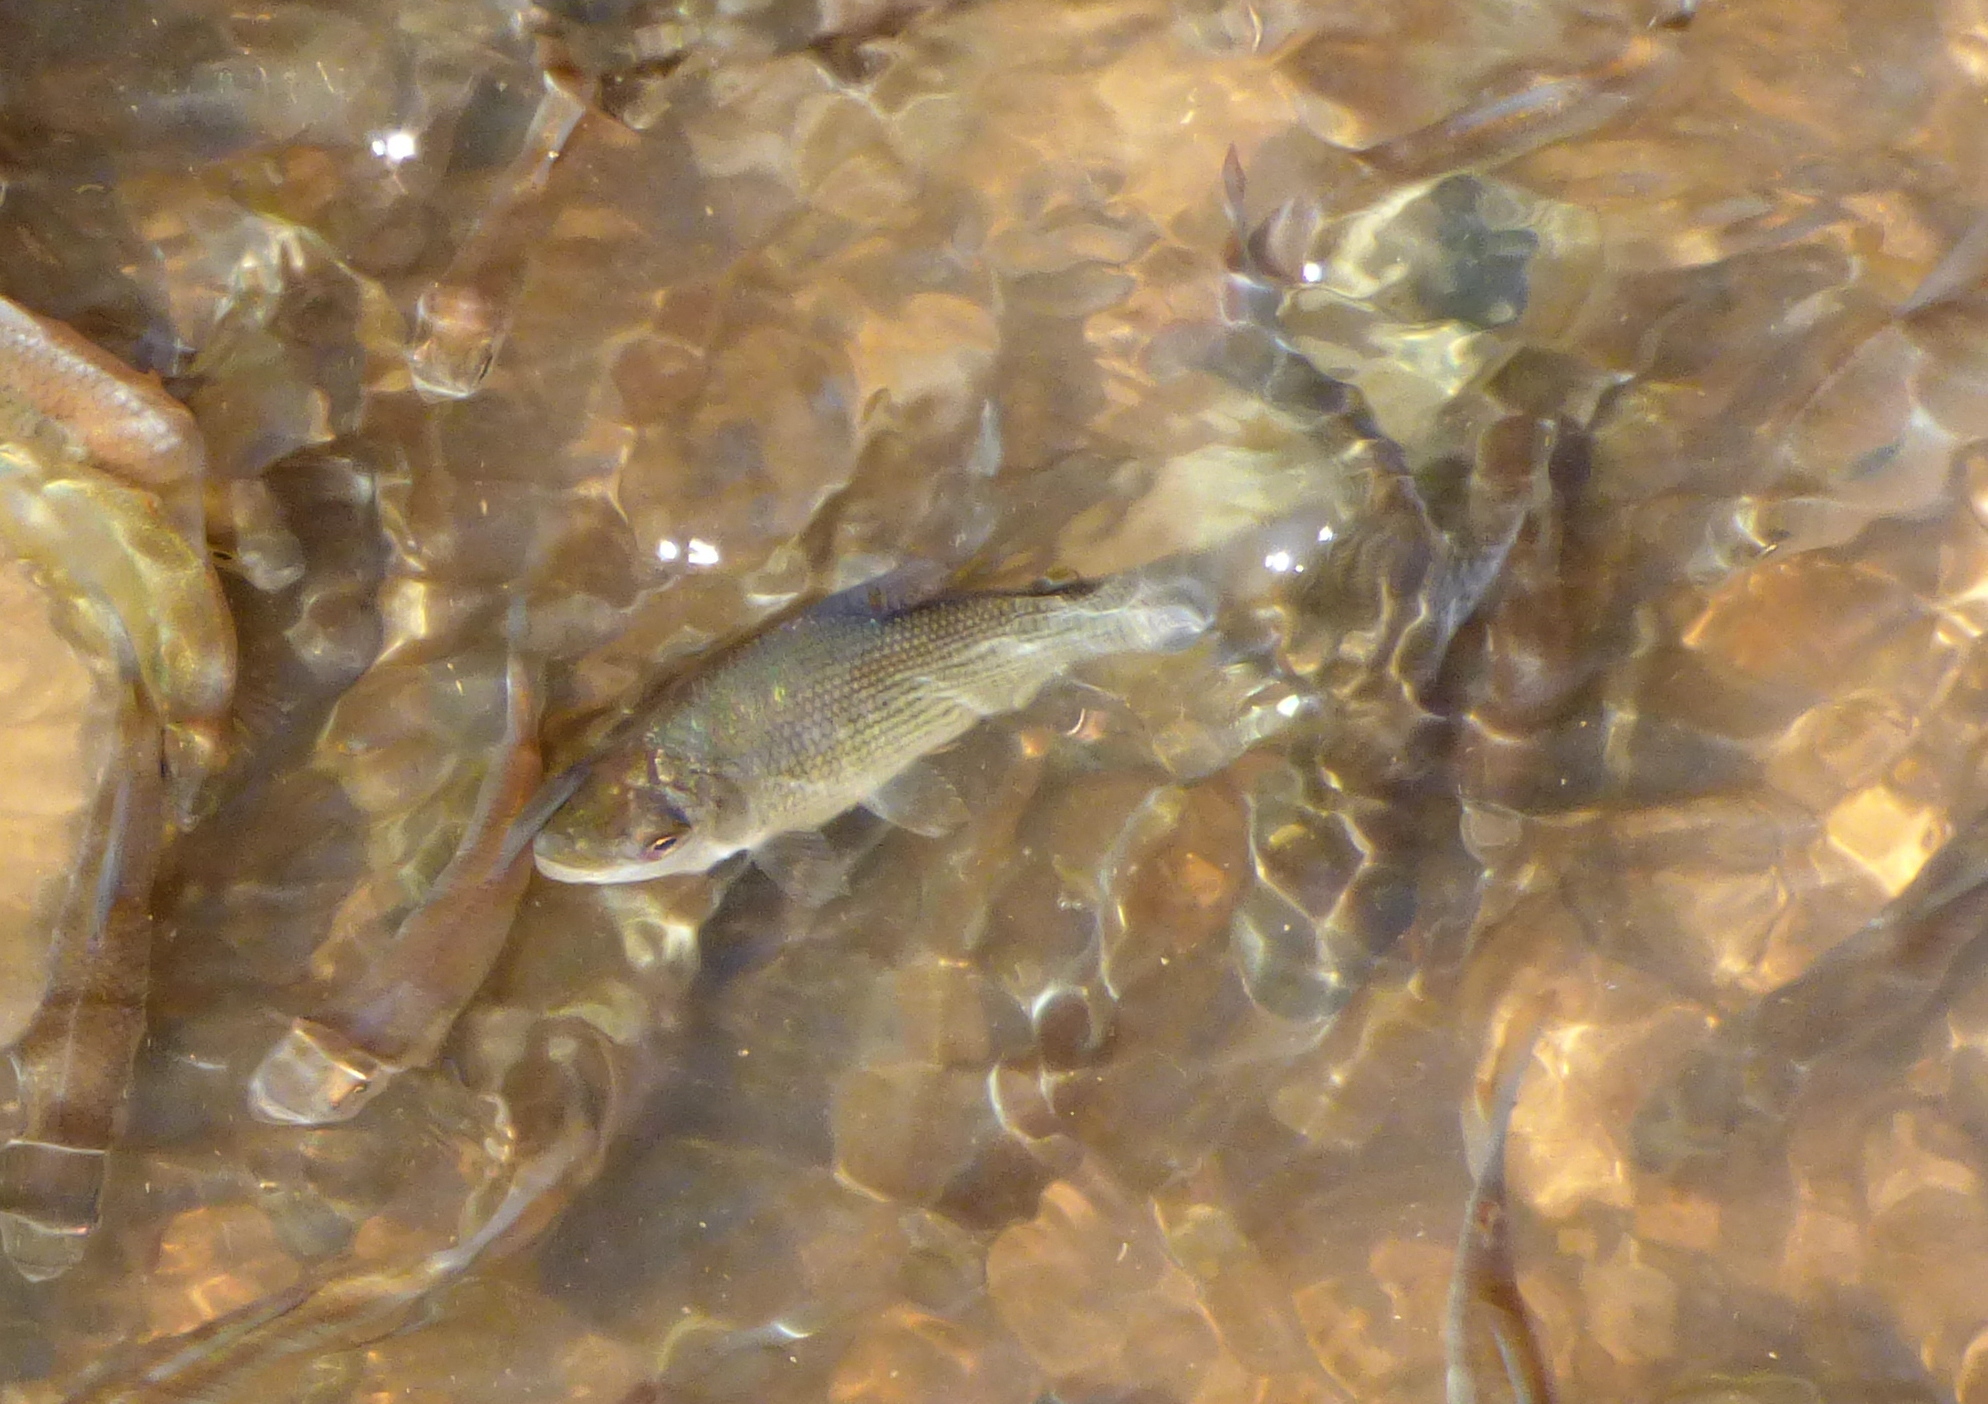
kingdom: Animalia
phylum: Chordata
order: Characiformes
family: Prochilodontidae
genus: Prochilodus
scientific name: Prochilodus lineatus
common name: Curimbata
